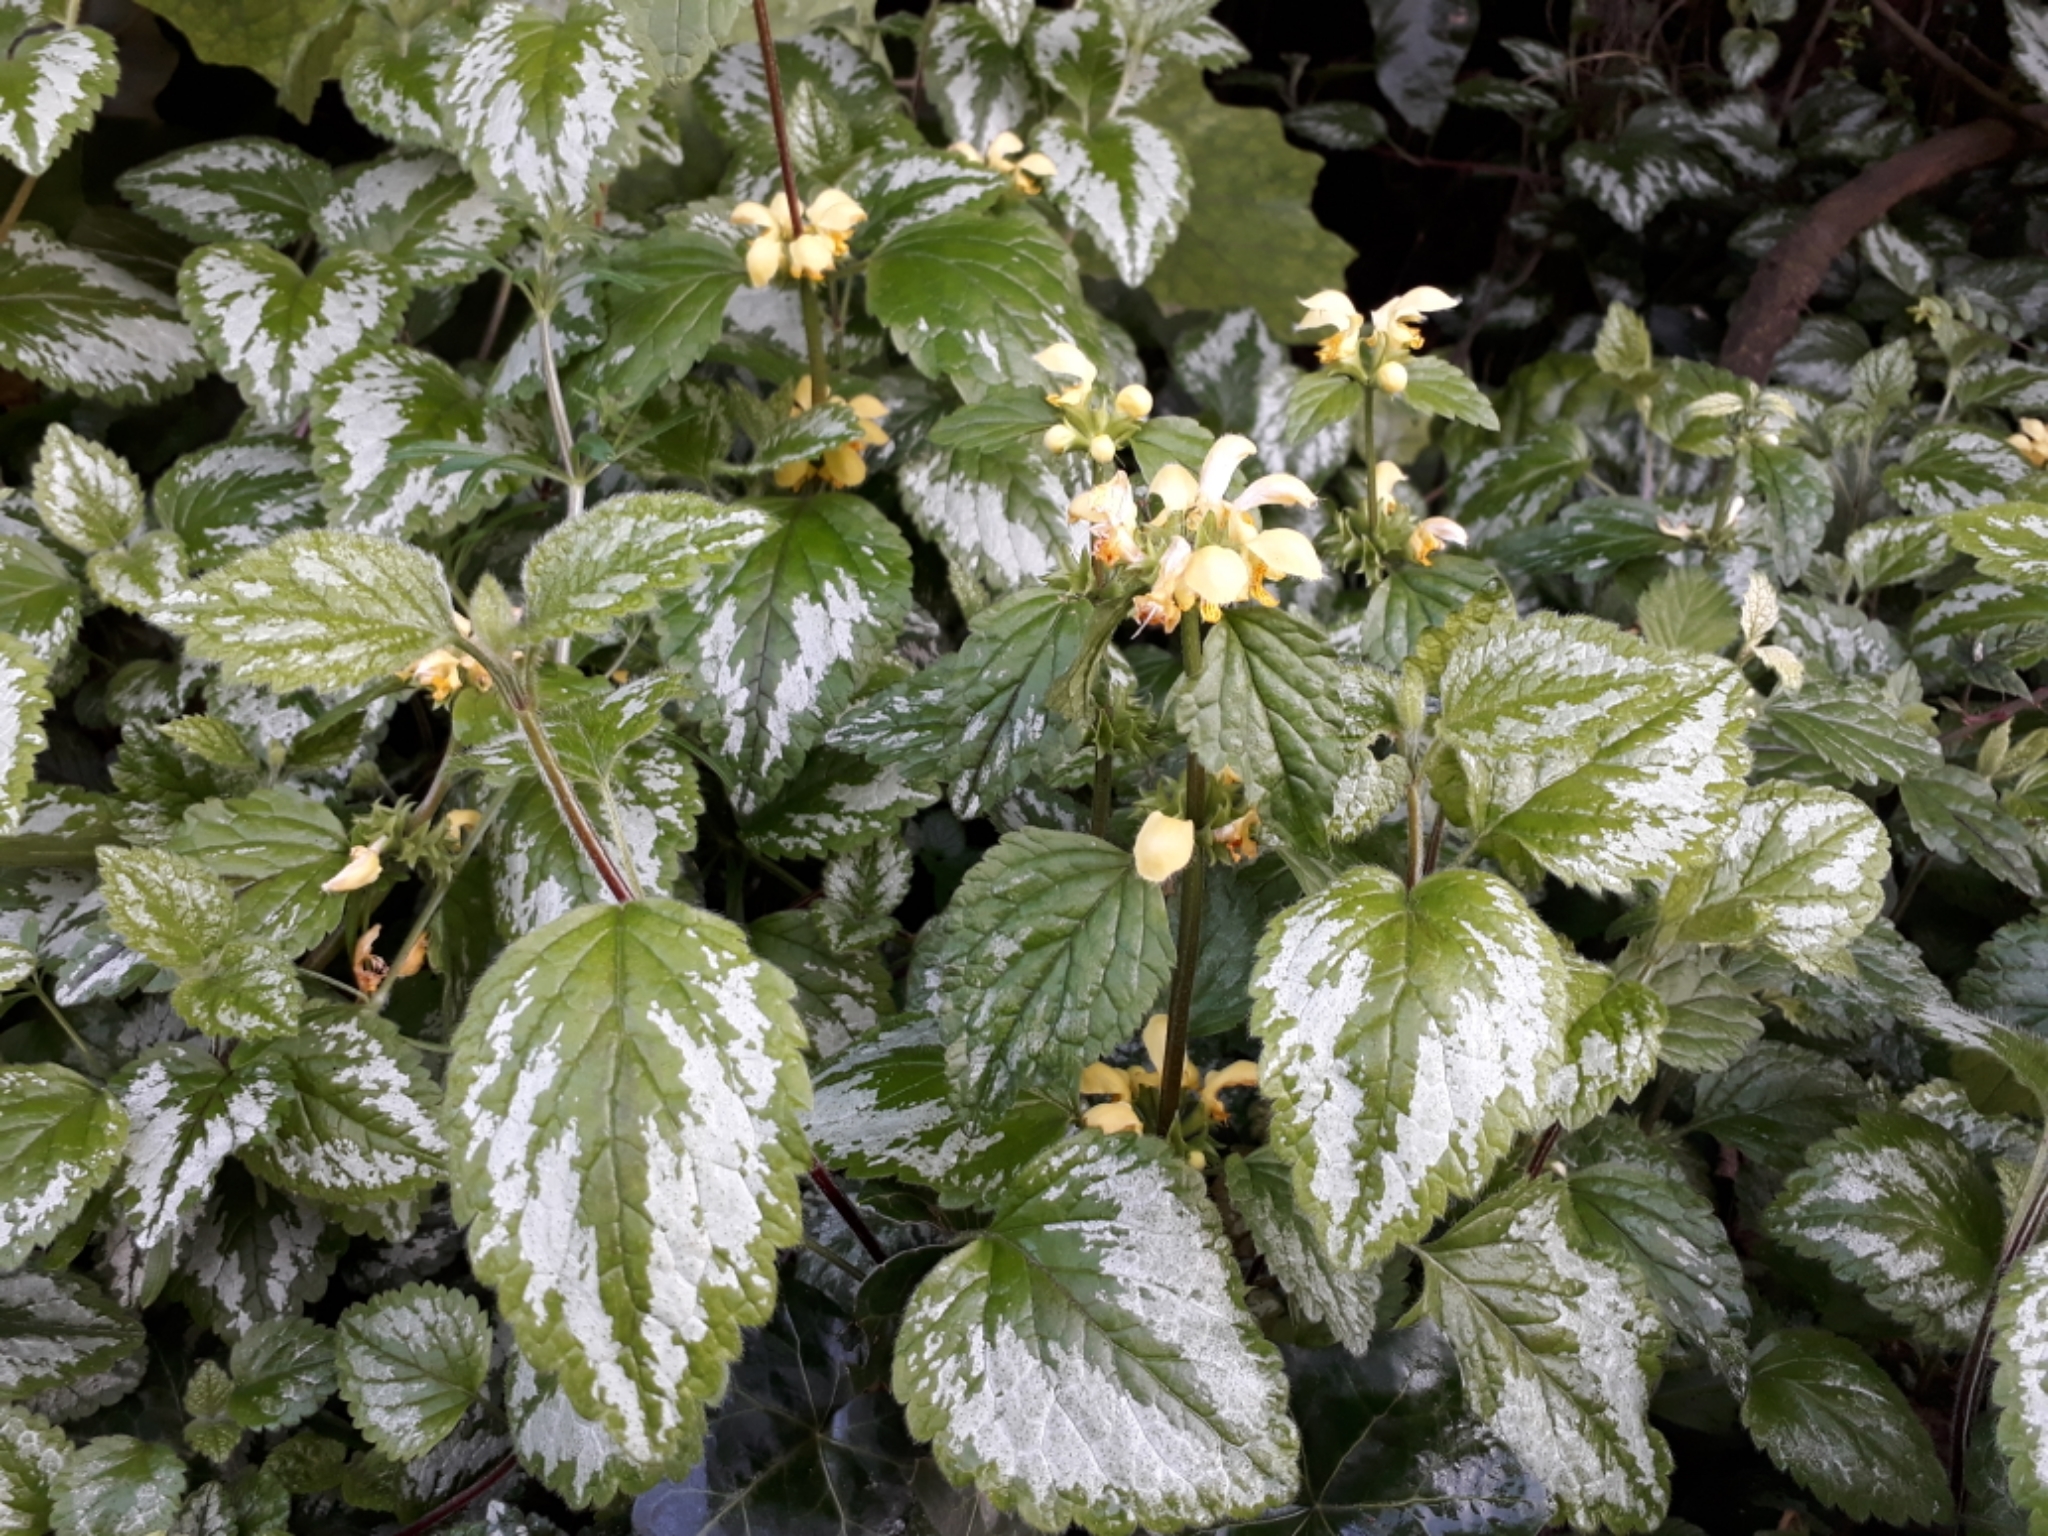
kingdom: Plantae
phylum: Tracheophyta
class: Magnoliopsida
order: Lamiales
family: Lamiaceae
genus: Lamium
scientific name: Lamium galeobdolon
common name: Yellow archangel
